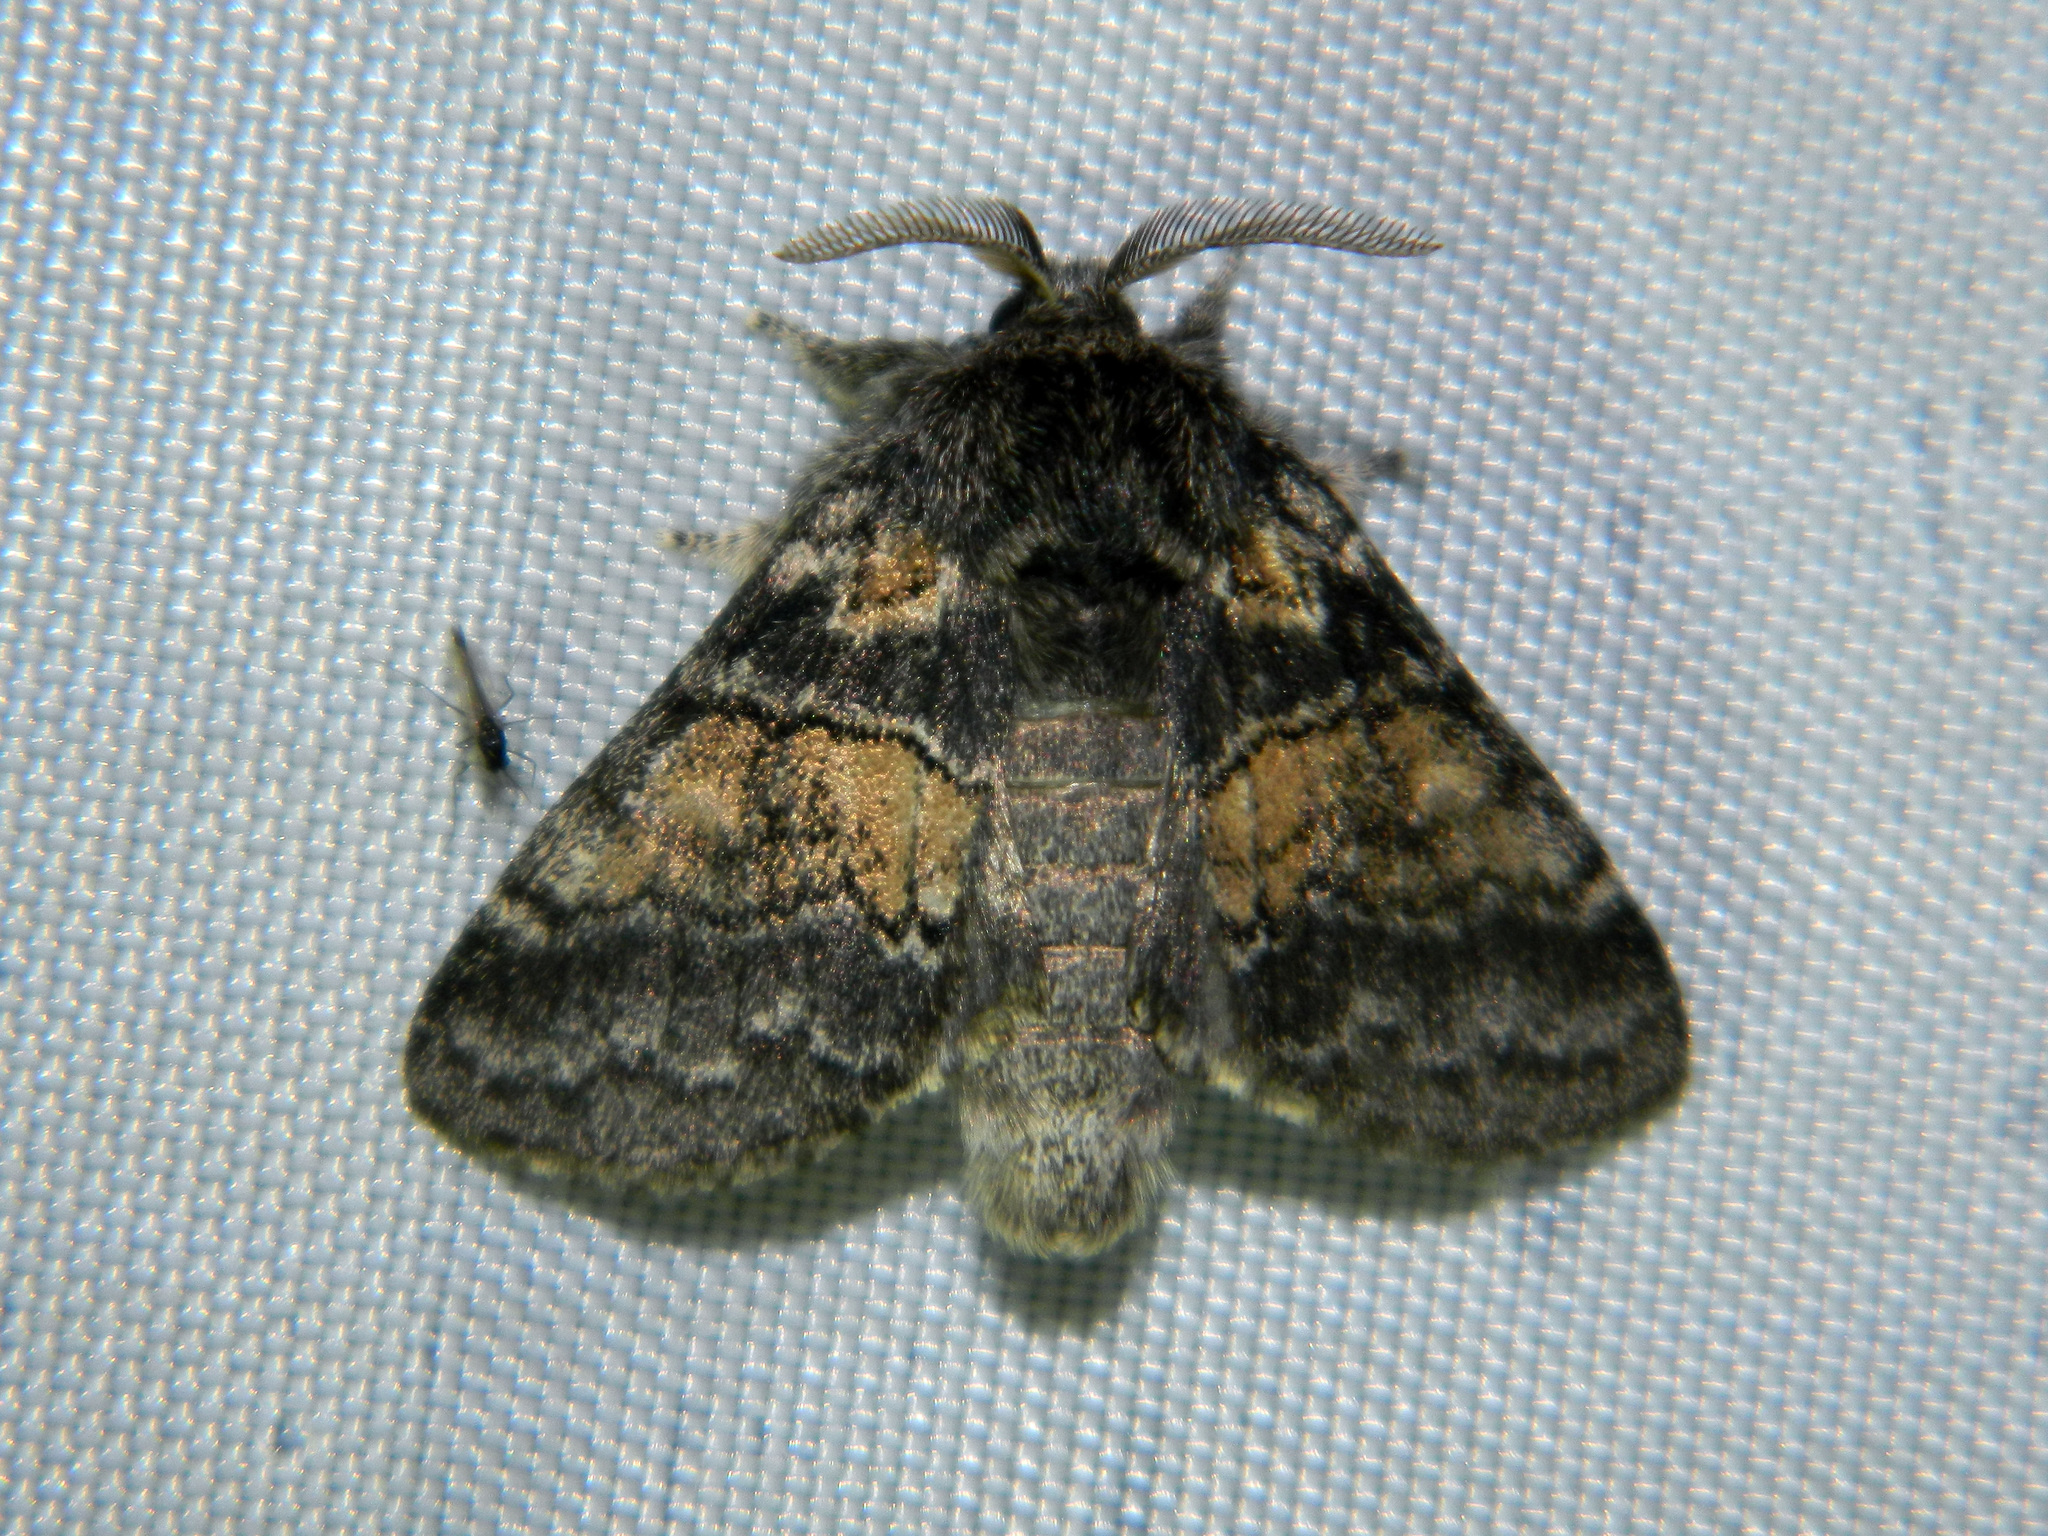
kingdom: Animalia
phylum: Arthropoda
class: Insecta
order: Lepidoptera
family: Notodontidae
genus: Gluphisia
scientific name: Gluphisia septentrionis
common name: Common gluphisia
